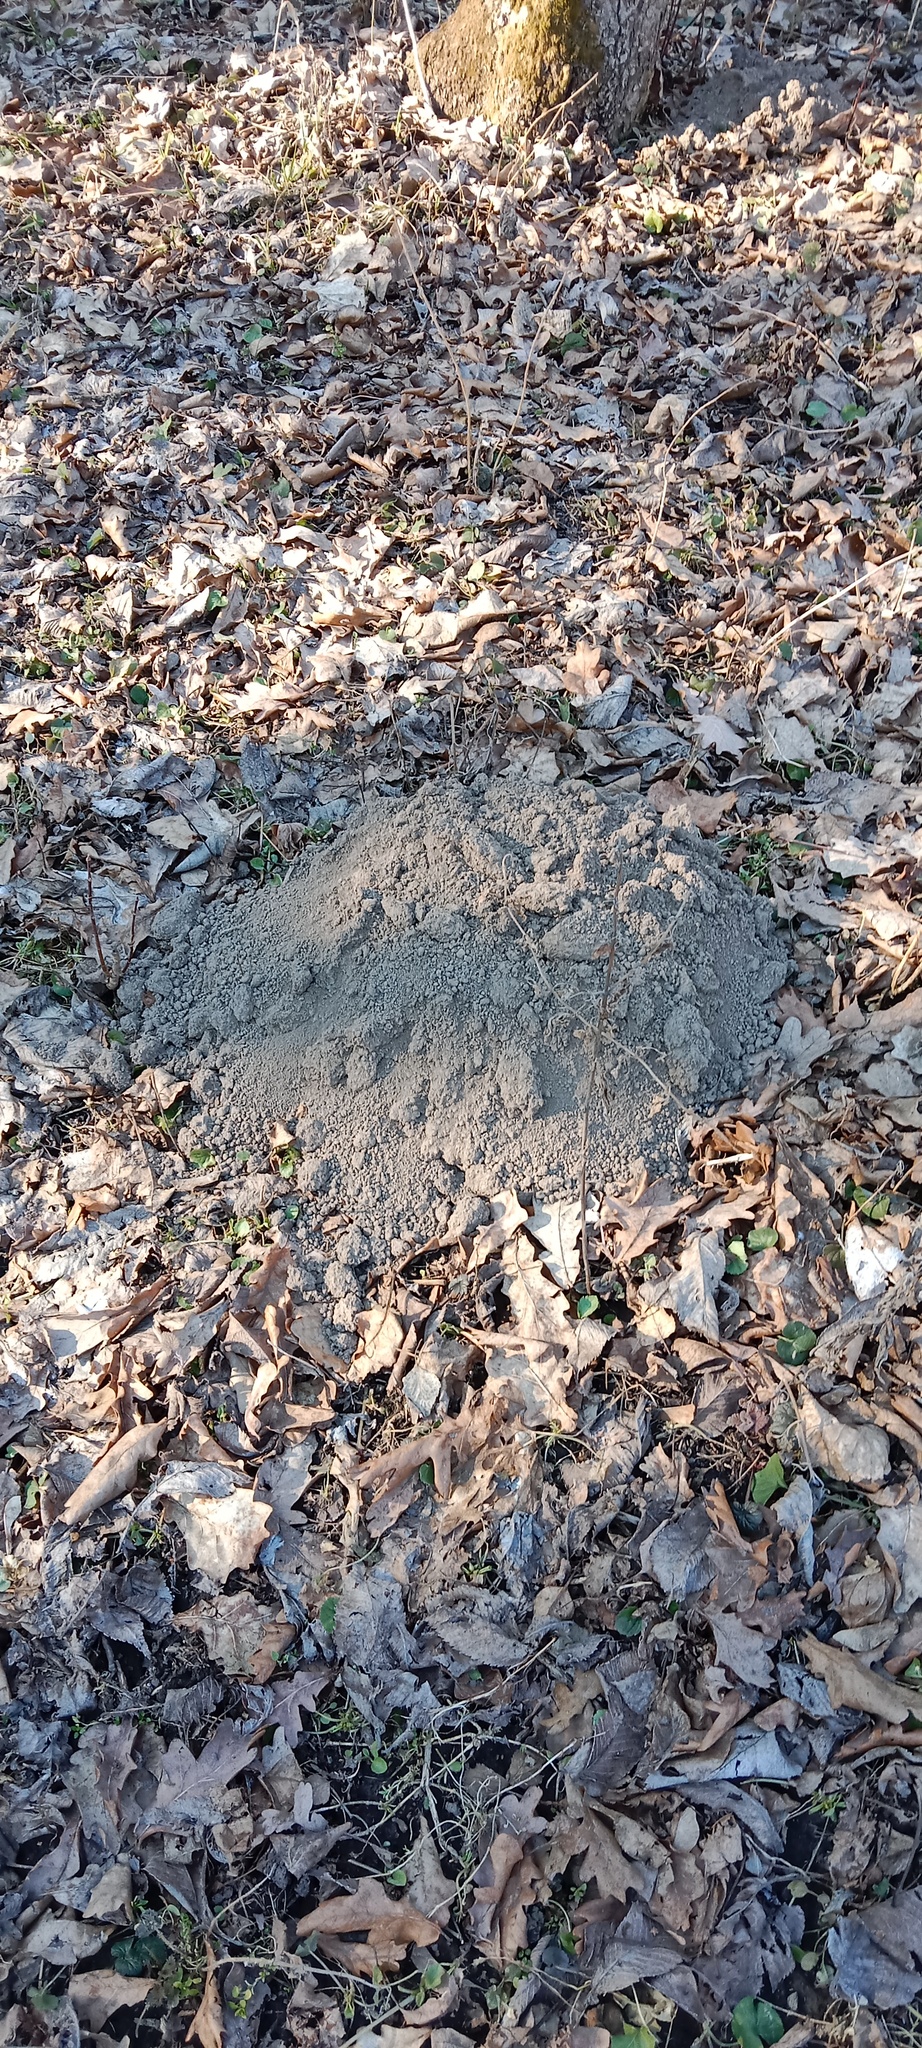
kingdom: Animalia
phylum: Chordata
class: Mammalia
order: Soricomorpha
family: Talpidae
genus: Talpa
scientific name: Talpa europaea
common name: European mole
